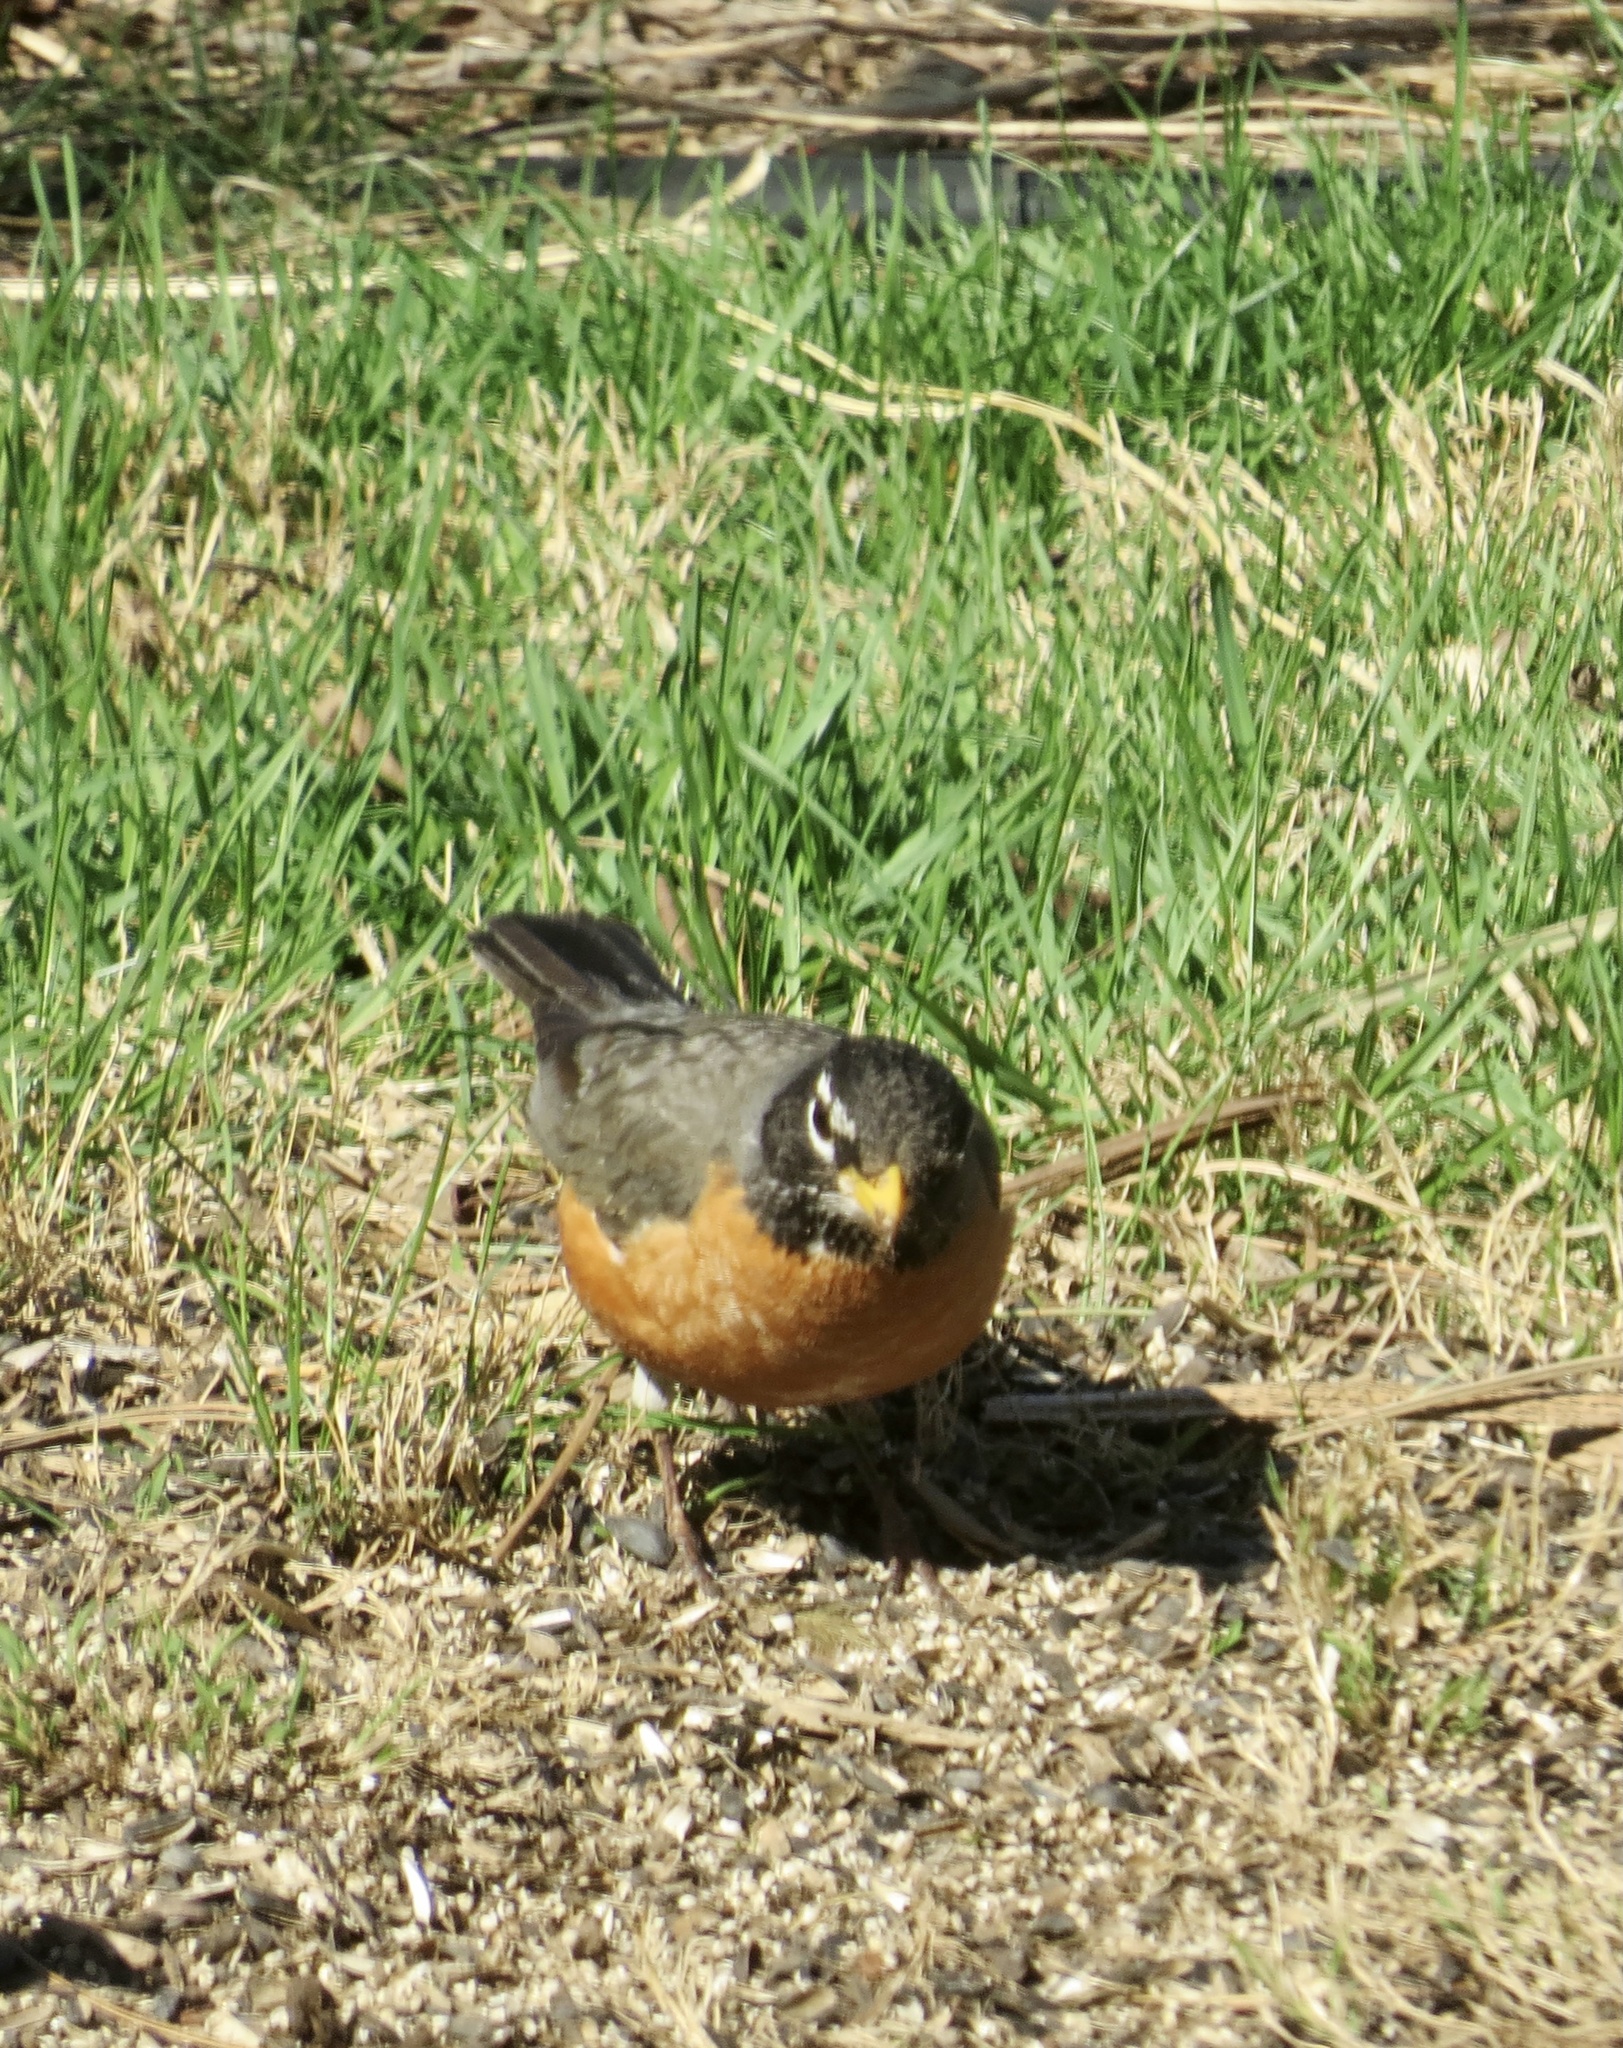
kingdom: Animalia
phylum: Chordata
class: Aves
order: Passeriformes
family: Turdidae
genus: Turdus
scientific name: Turdus migratorius
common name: American robin
